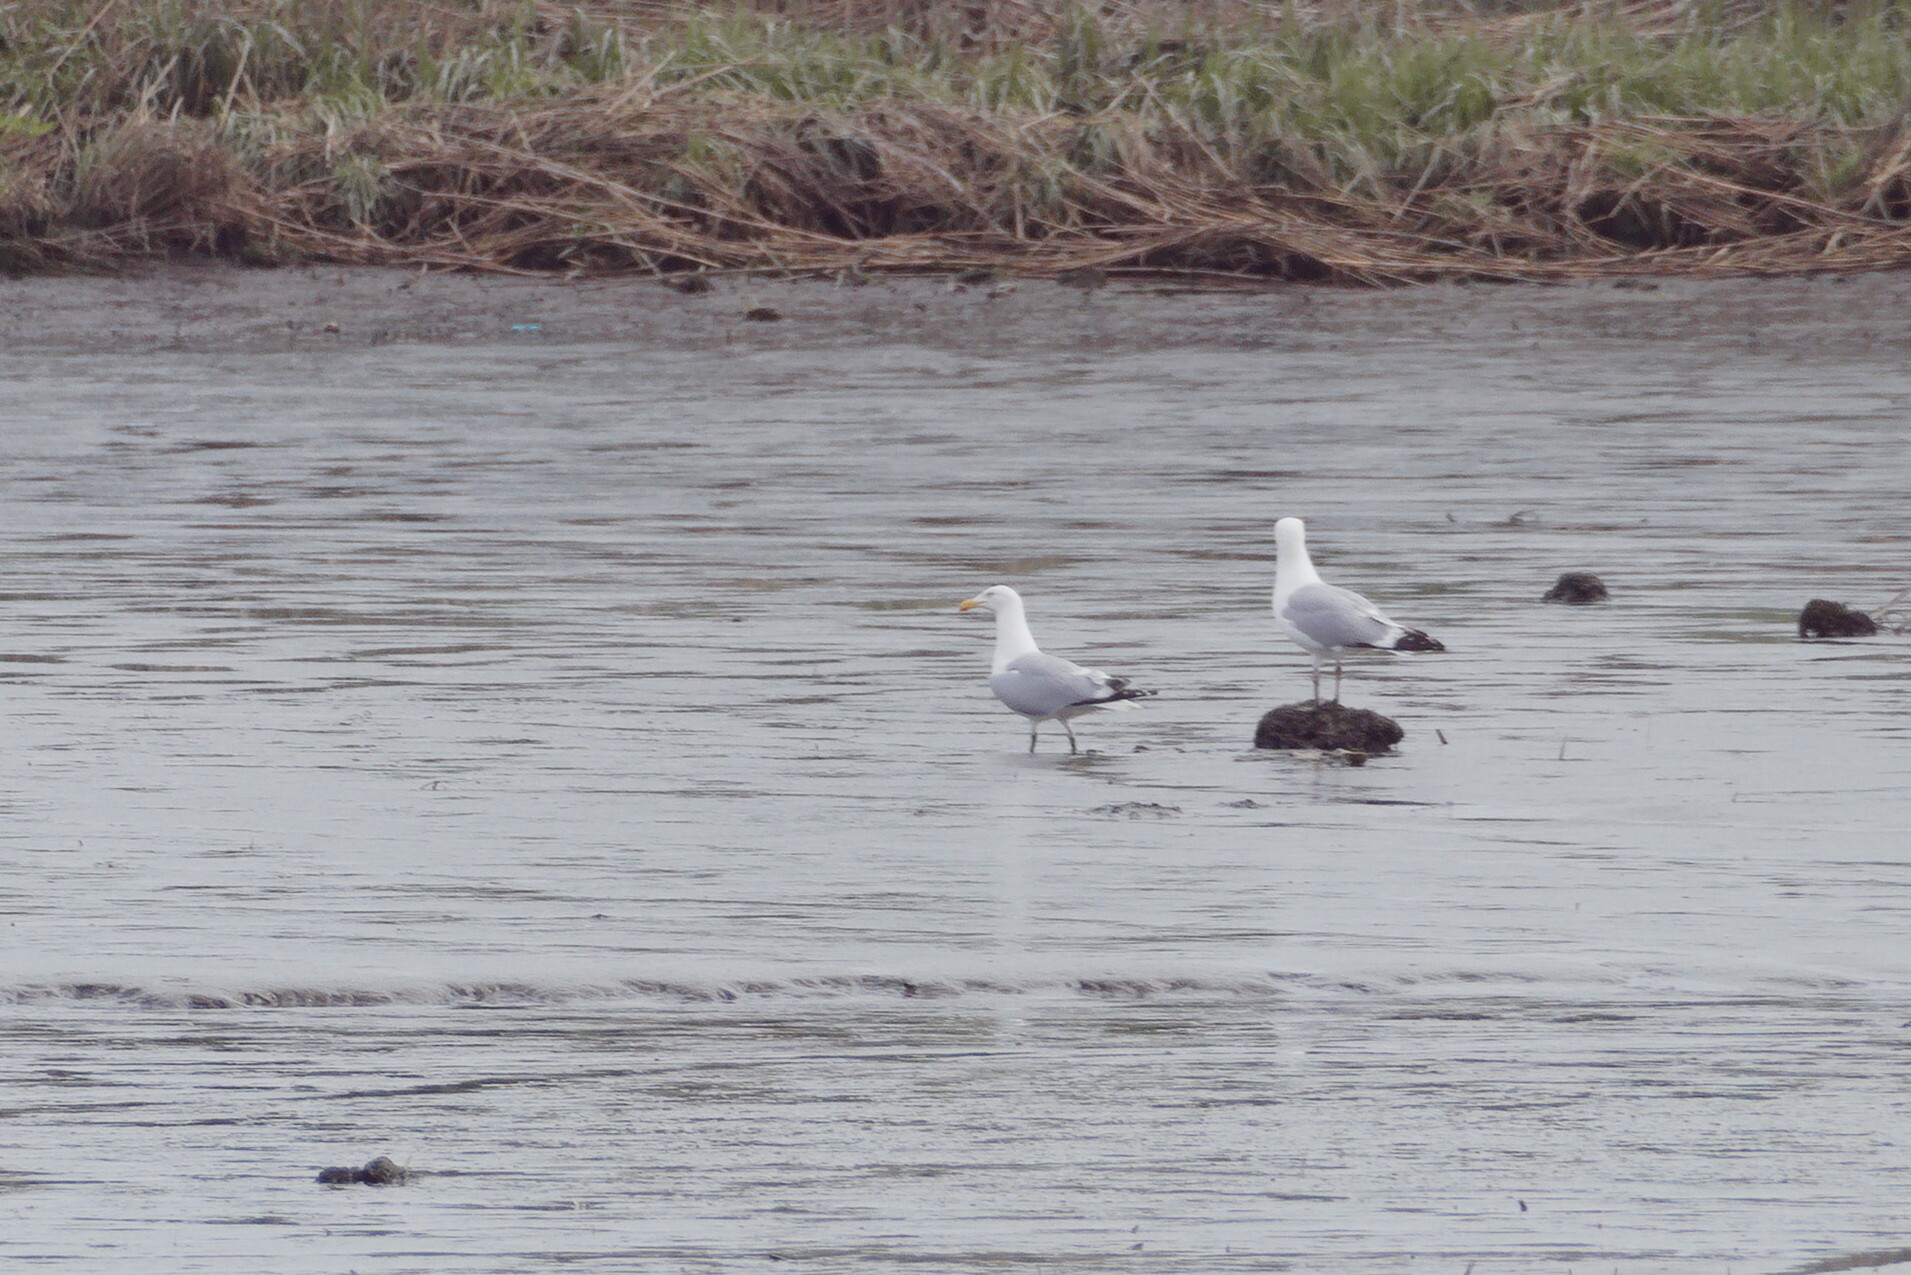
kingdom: Animalia
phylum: Chordata
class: Aves
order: Charadriiformes
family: Laridae
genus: Larus
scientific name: Larus argentatus
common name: Herring gull
